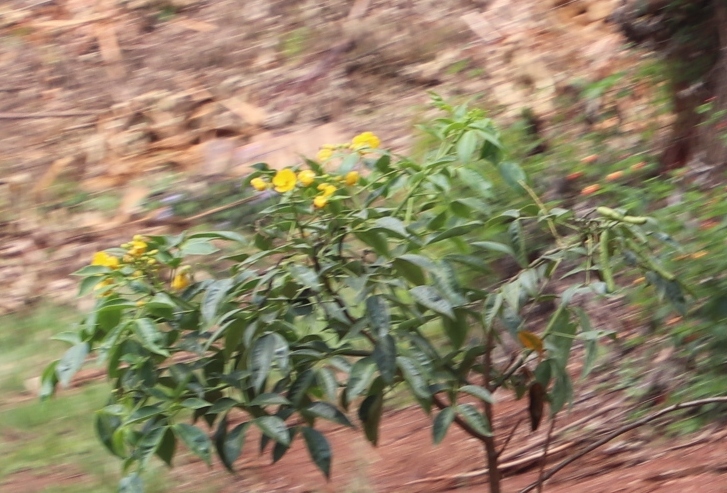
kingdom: Plantae
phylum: Tracheophyta
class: Magnoliopsida
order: Fabales
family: Fabaceae
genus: Senna
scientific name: Senna septemtrionalis
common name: Arsenic bush
